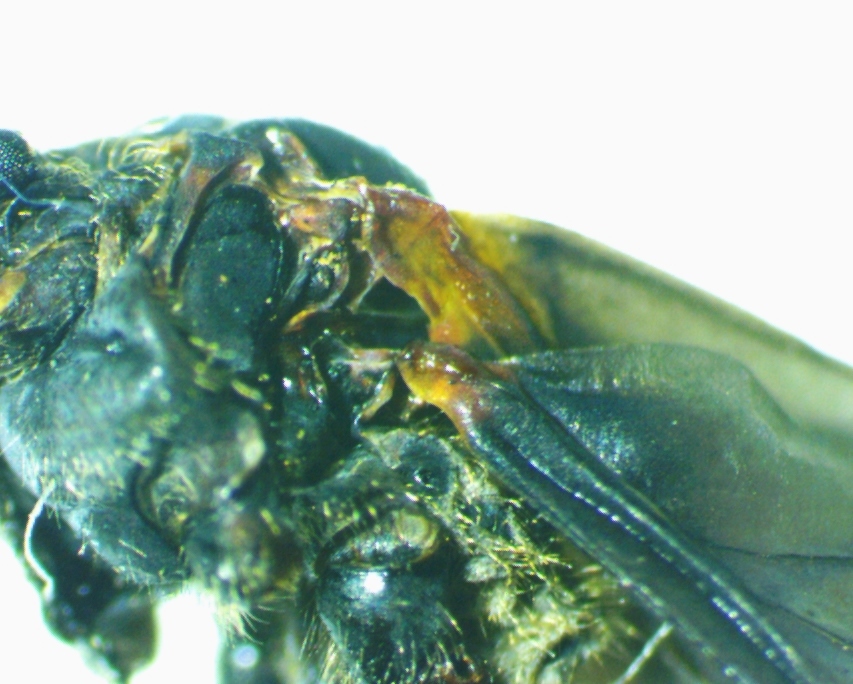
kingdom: Animalia
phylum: Arthropoda
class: Insecta
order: Hemiptera
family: Aphididae
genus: Longistigma
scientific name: Longistigma caryae
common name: Giant bark aphid
